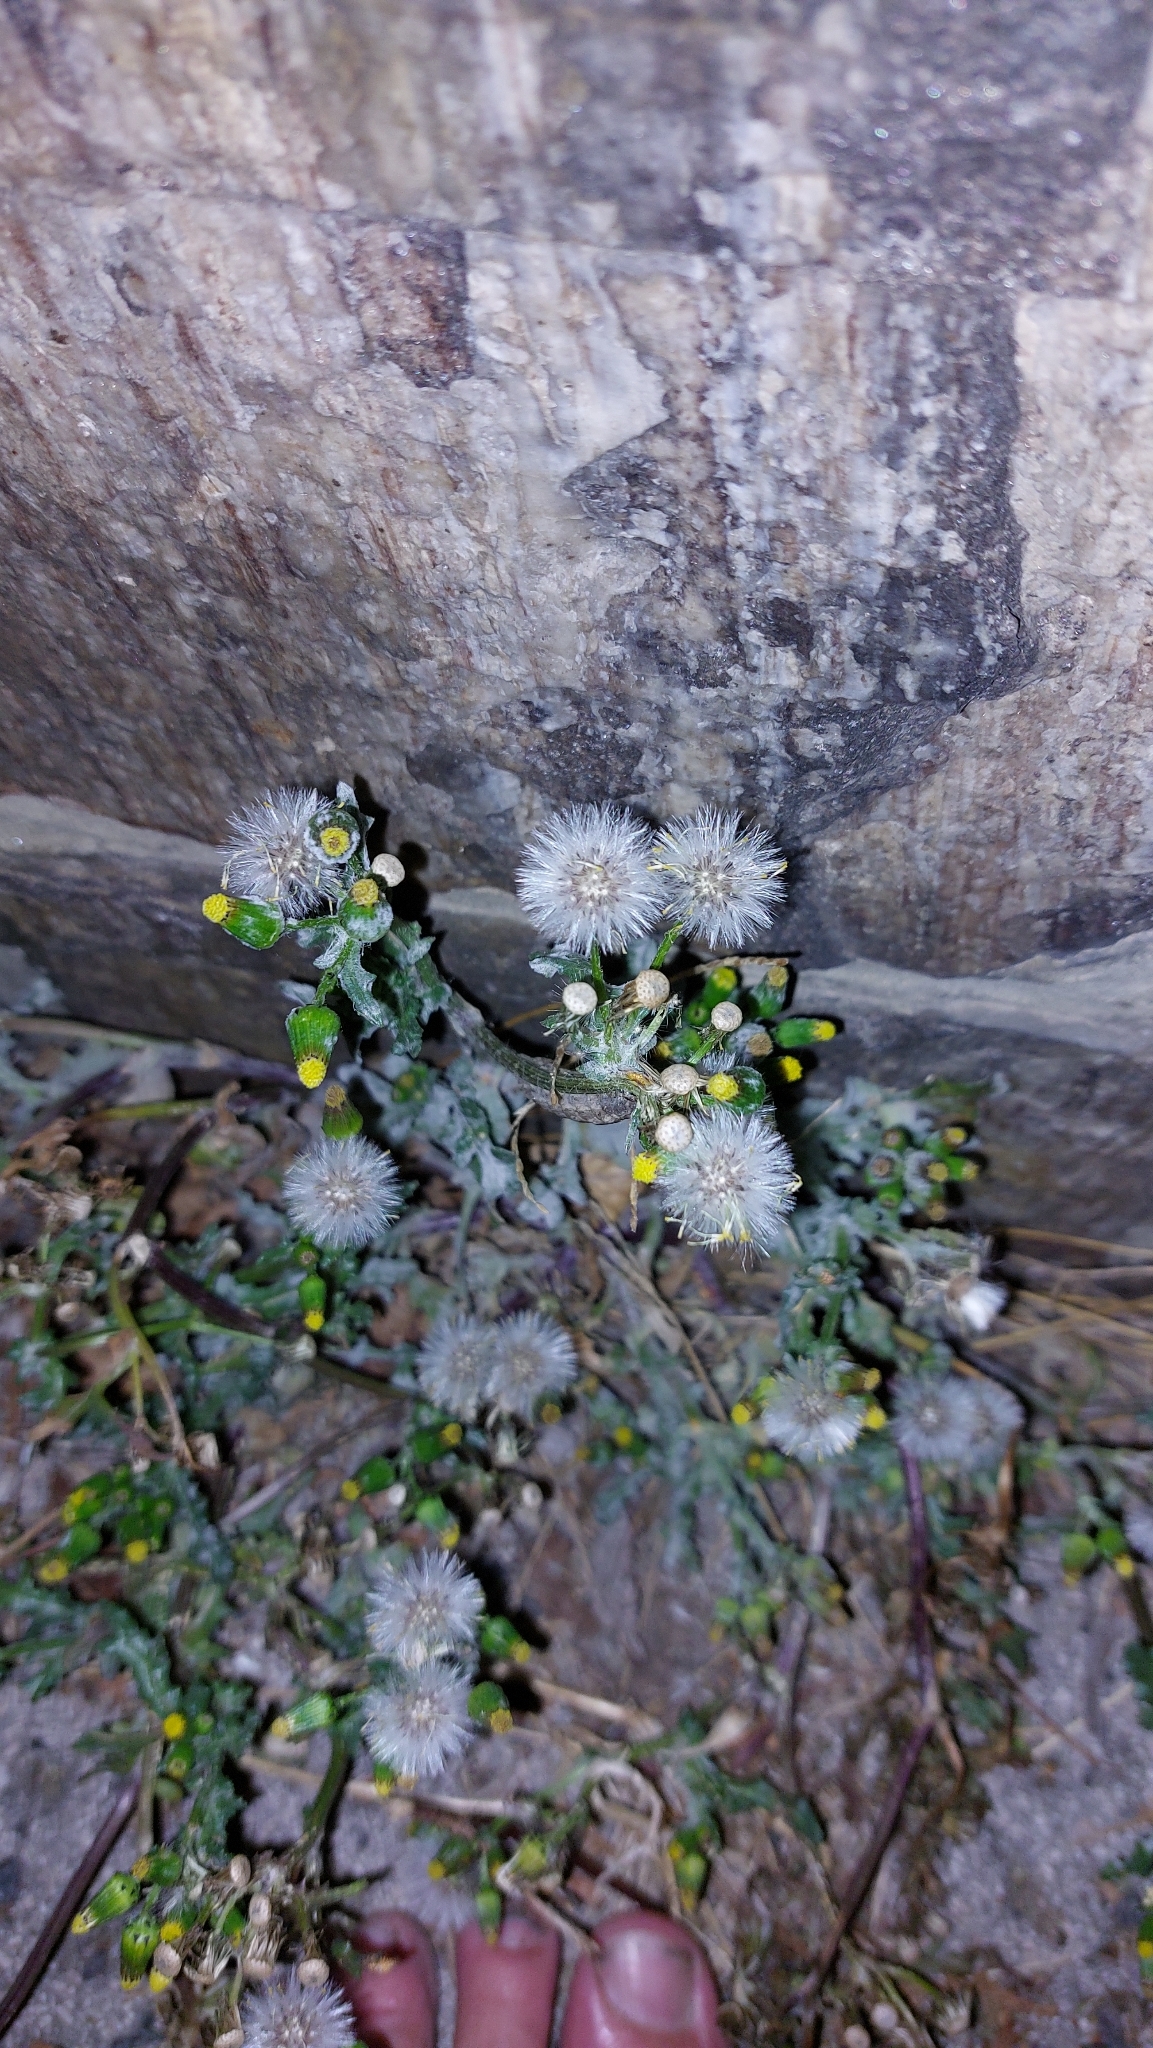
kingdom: Plantae
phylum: Tracheophyta
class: Magnoliopsida
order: Asterales
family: Asteraceae
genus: Senecio
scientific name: Senecio vulgaris
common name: Old-man-in-the-spring
